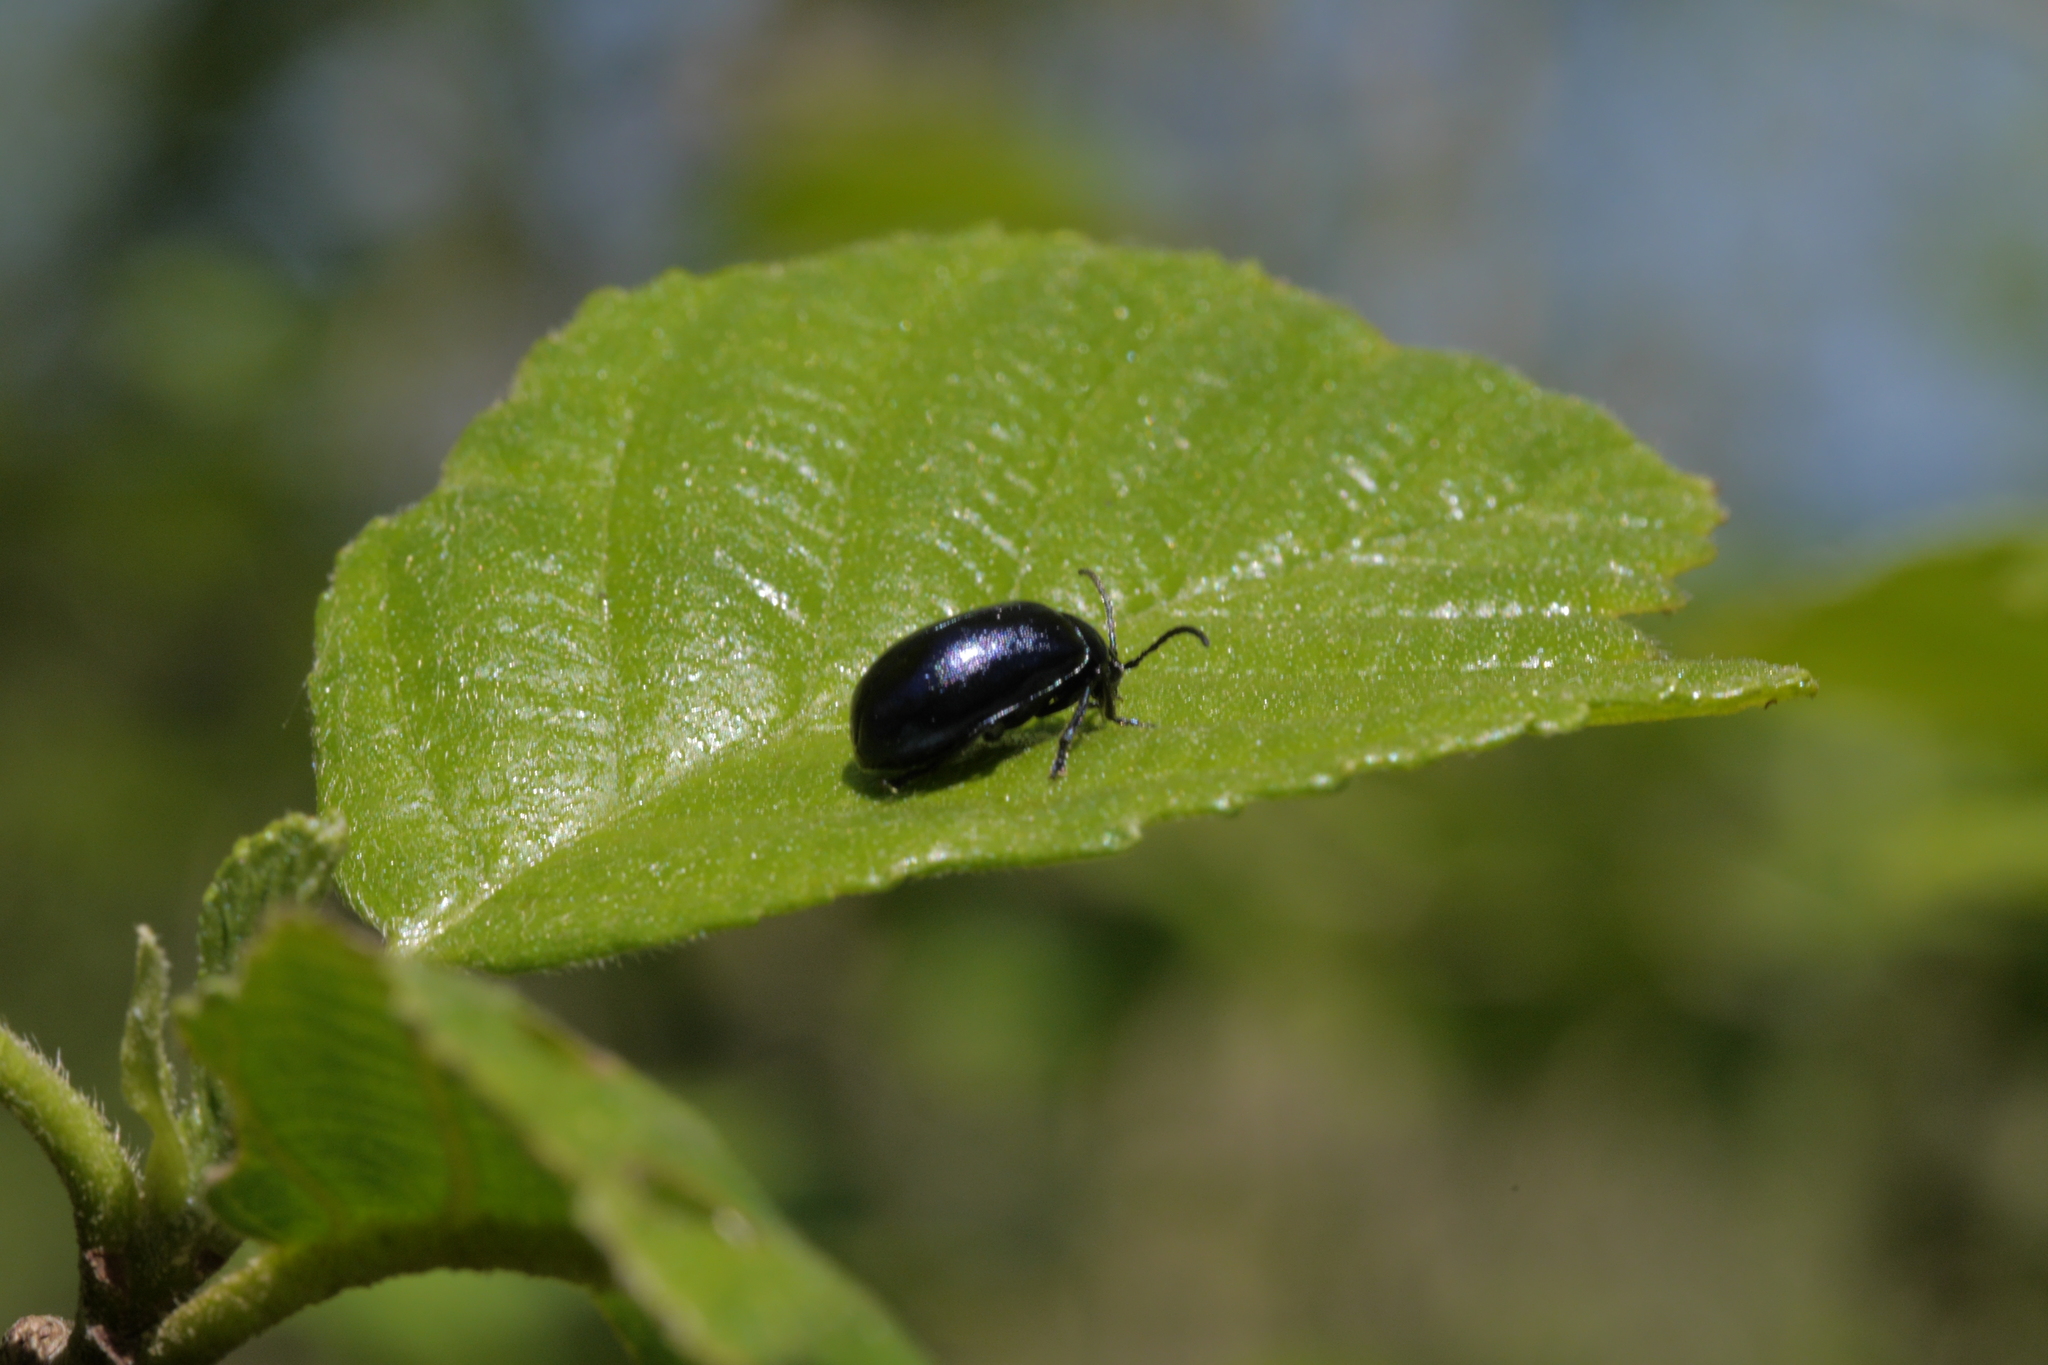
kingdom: Animalia
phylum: Arthropoda
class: Insecta
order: Coleoptera
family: Chrysomelidae
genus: Agelastica
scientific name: Agelastica alni
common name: Alder leaf beetle
